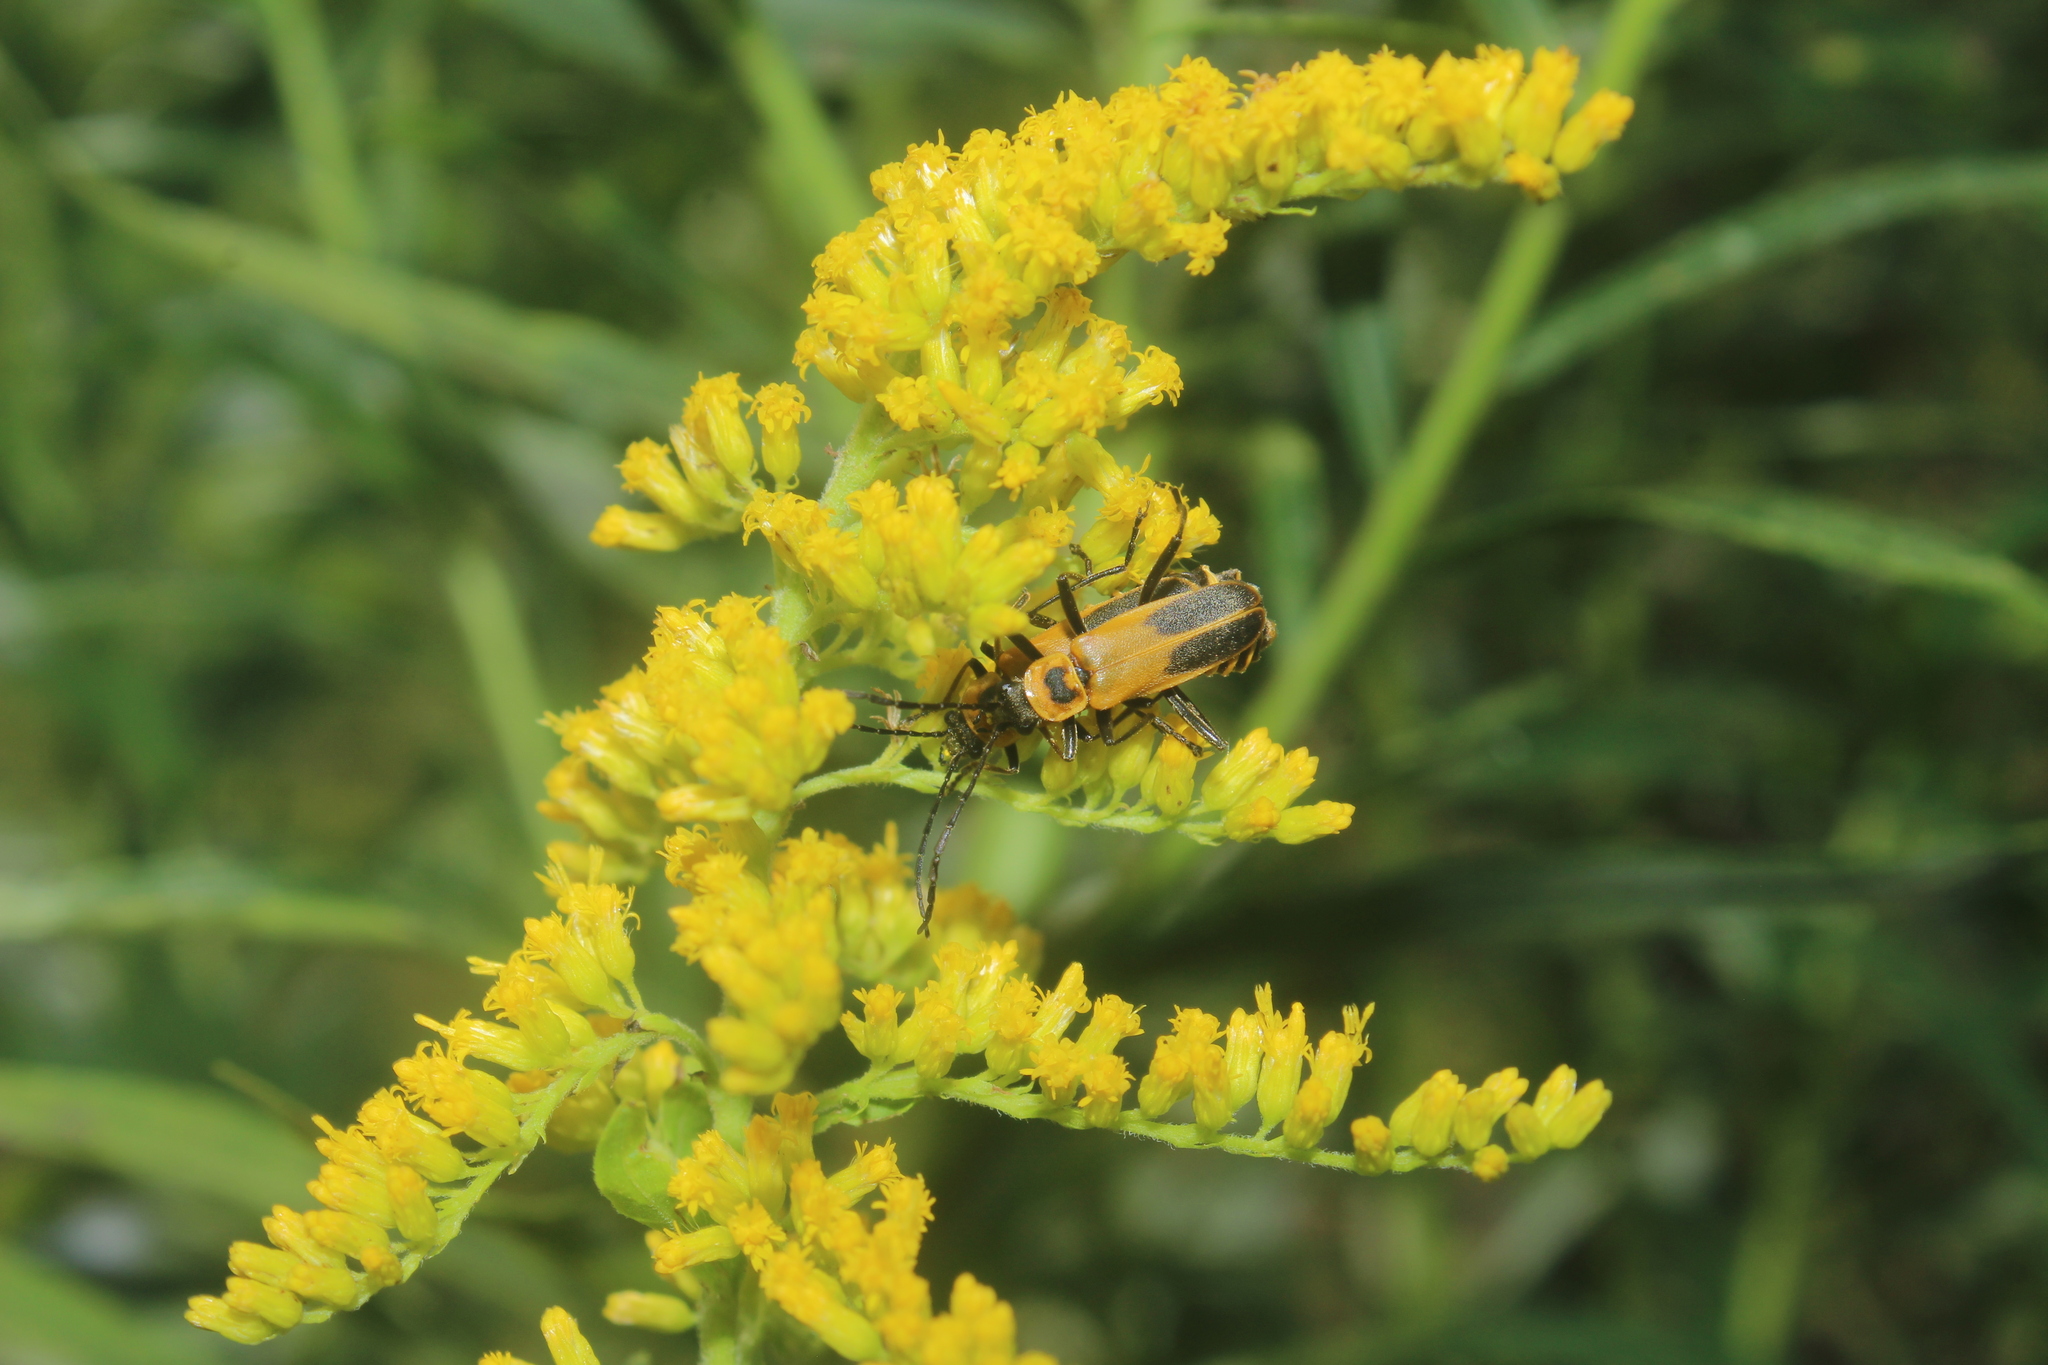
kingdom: Animalia
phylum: Arthropoda
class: Insecta
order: Coleoptera
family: Cantharidae
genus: Chauliognathus
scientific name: Chauliognathus pensylvanicus
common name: Goldenrod soldier beetle
